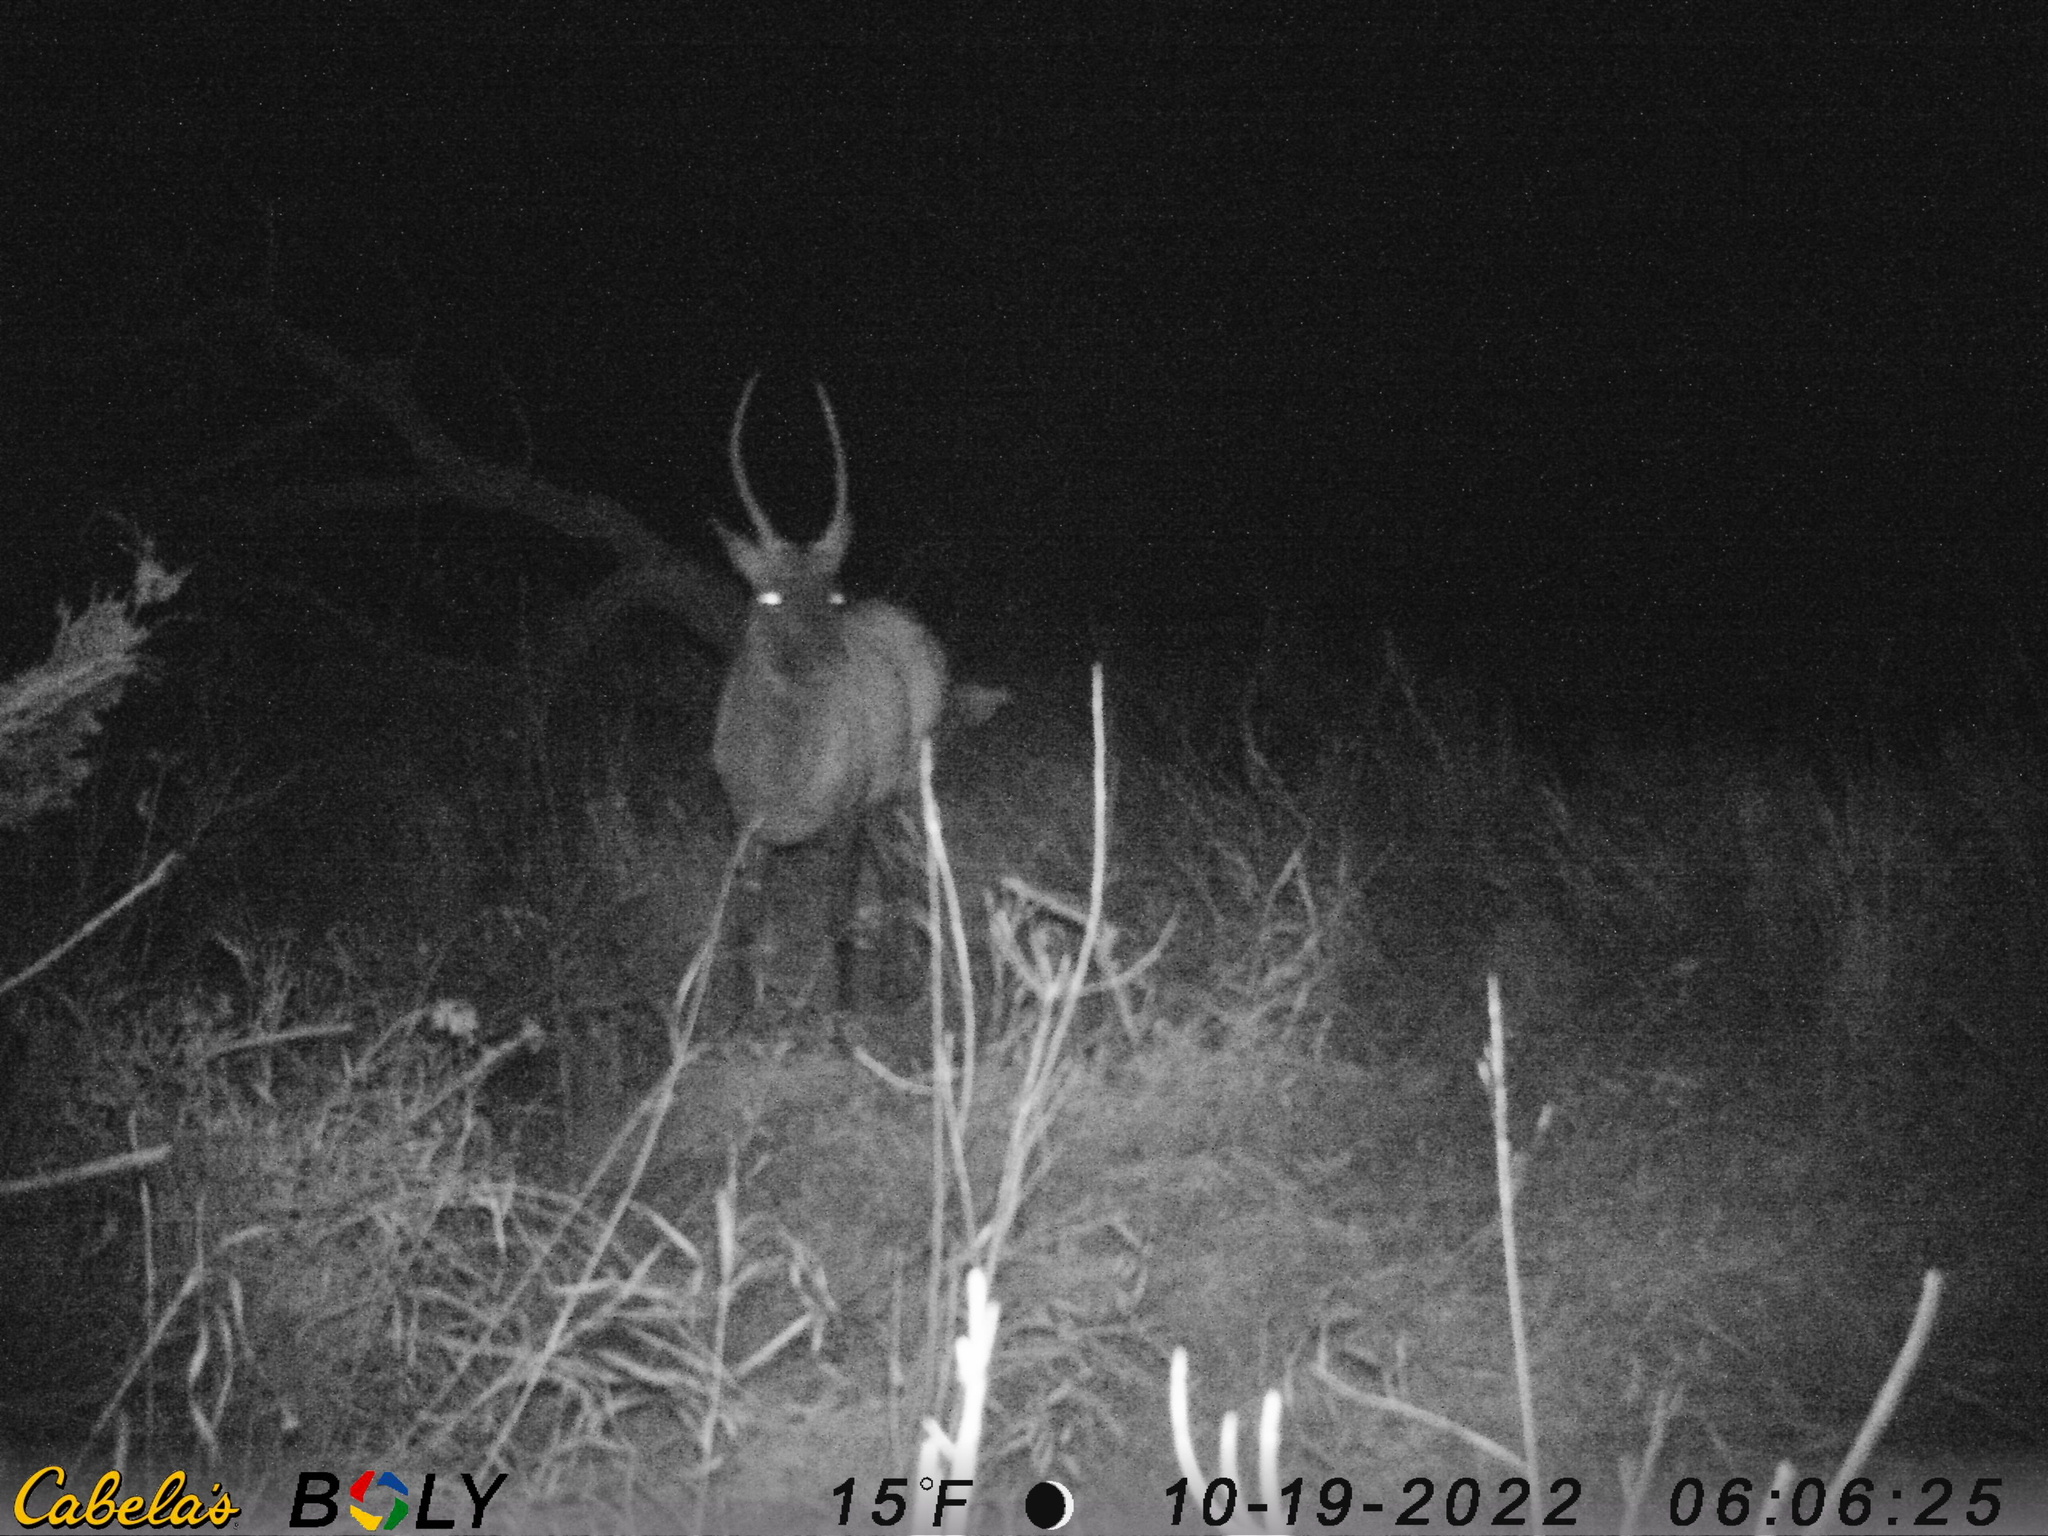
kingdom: Animalia
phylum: Chordata
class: Mammalia
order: Artiodactyla
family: Cervidae
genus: Cervus
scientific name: Cervus elaphus
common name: Red deer
